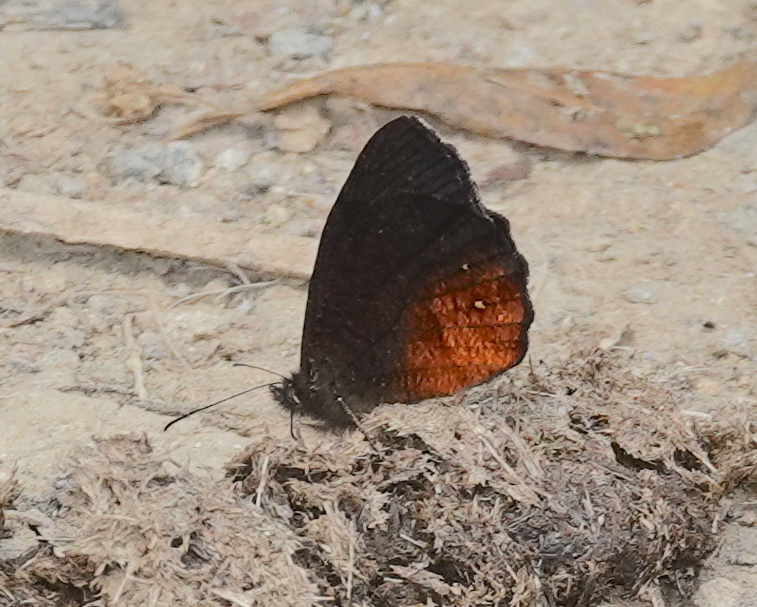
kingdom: Animalia
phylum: Arthropoda
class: Insecta
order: Lepidoptera
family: Nymphalidae
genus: Pedaliodes
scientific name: Pedaliodes pollonia
